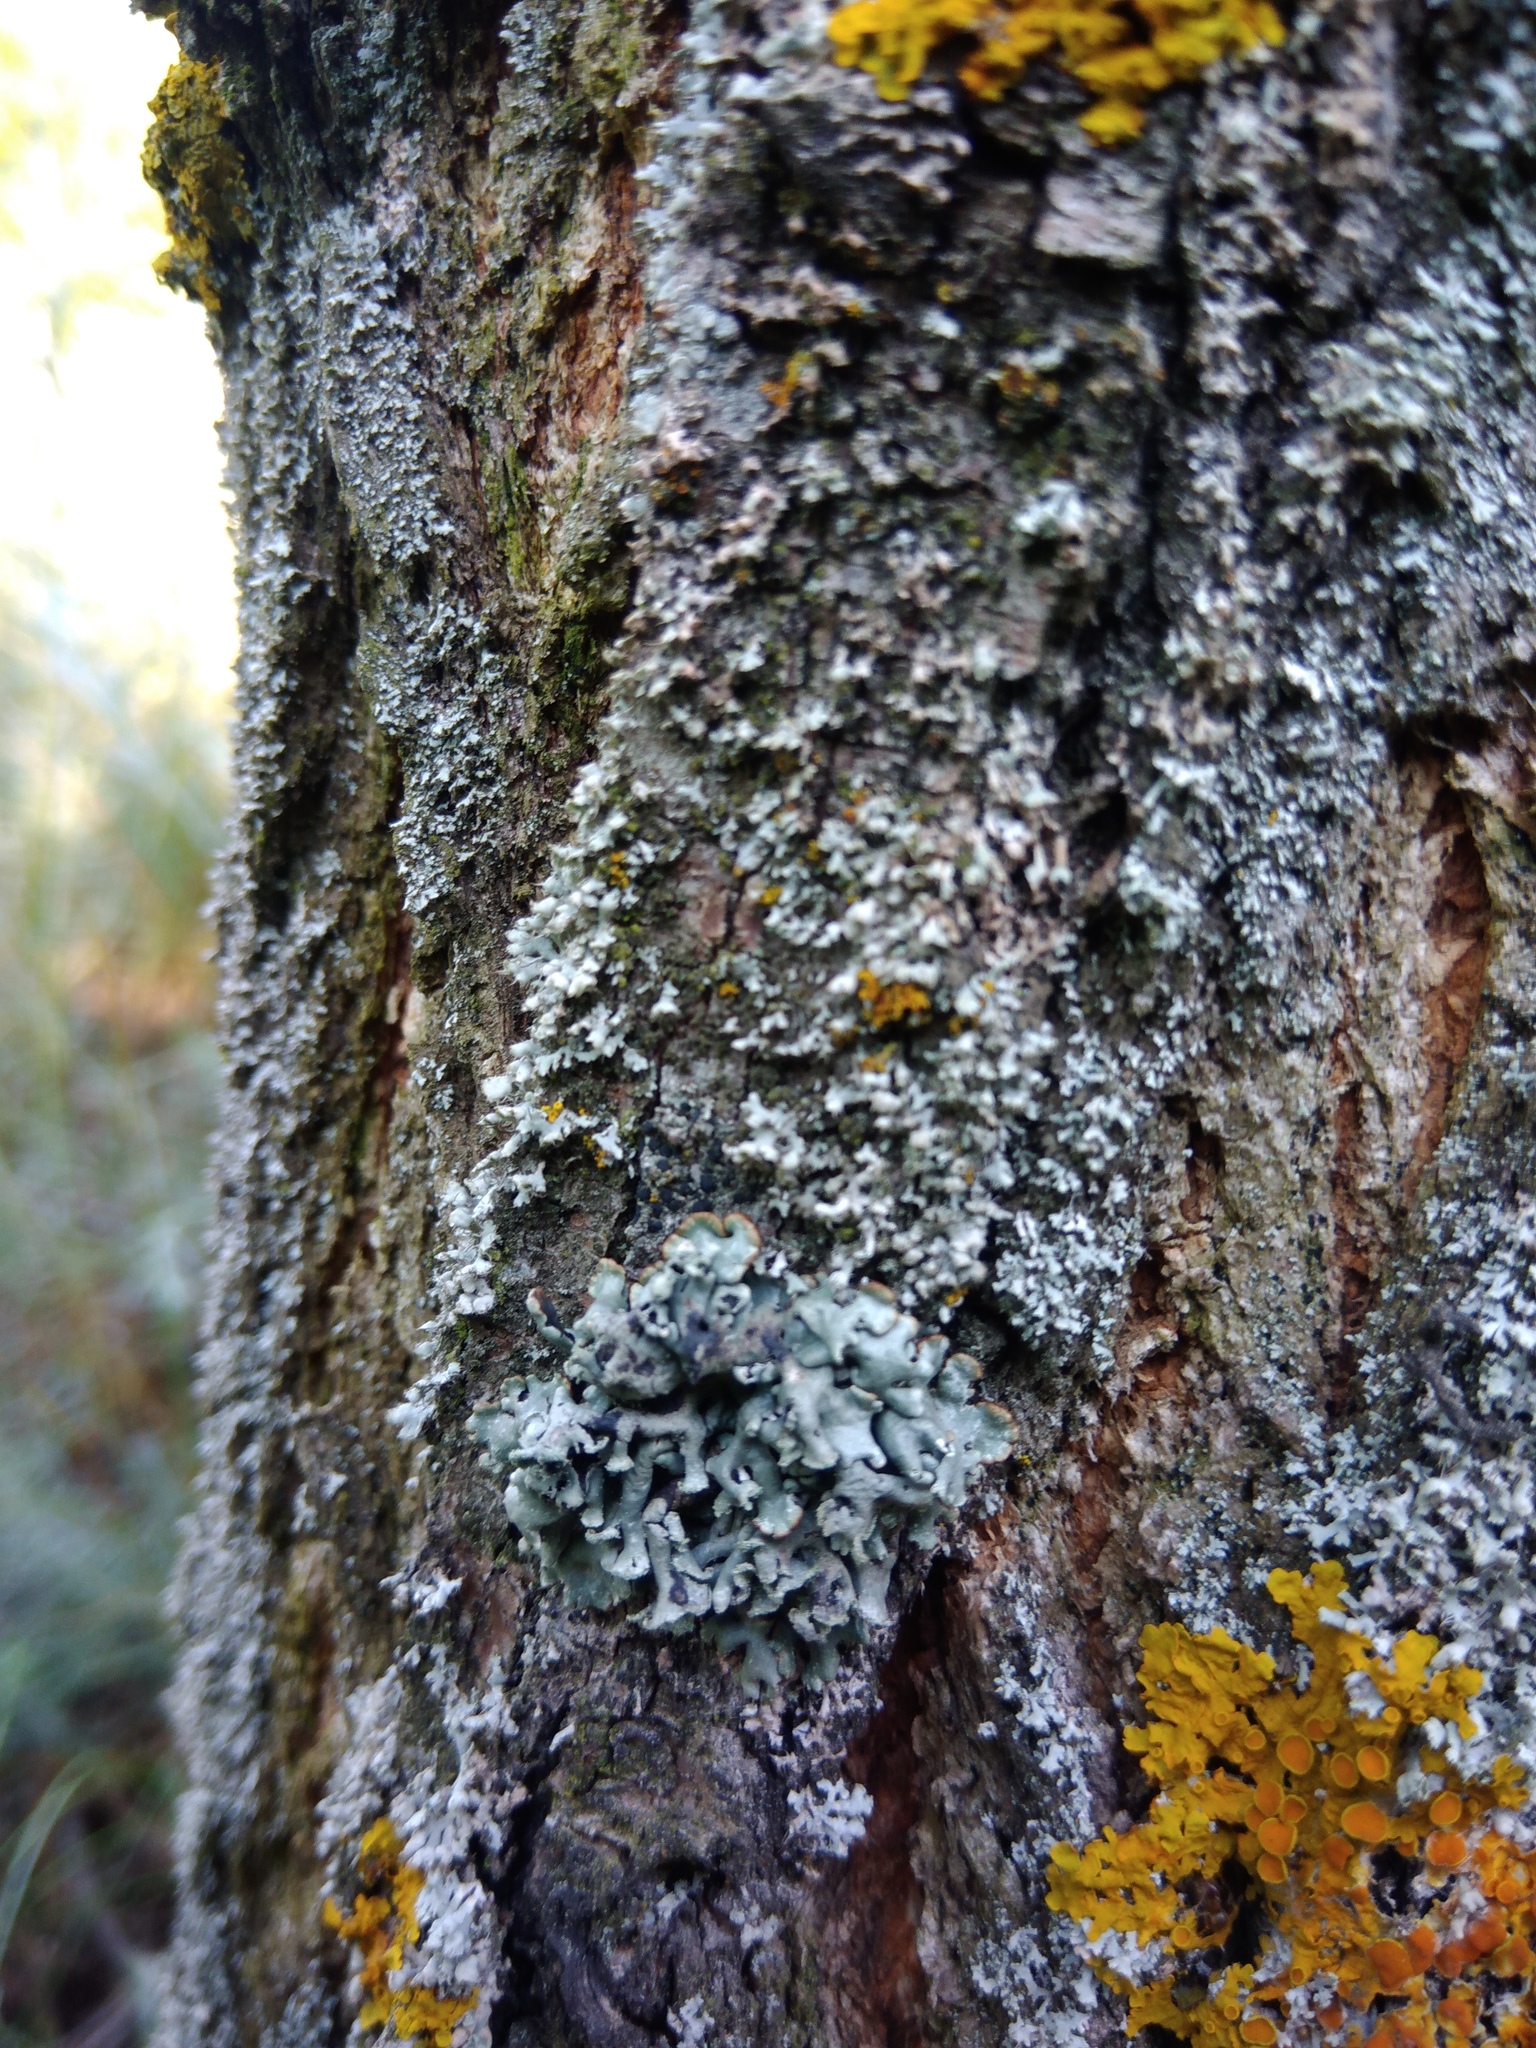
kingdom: Fungi
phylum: Ascomycota
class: Lecanoromycetes
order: Lecanorales
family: Parmeliaceae
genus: Hypogymnia
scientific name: Hypogymnia physodes
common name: Dark crottle
